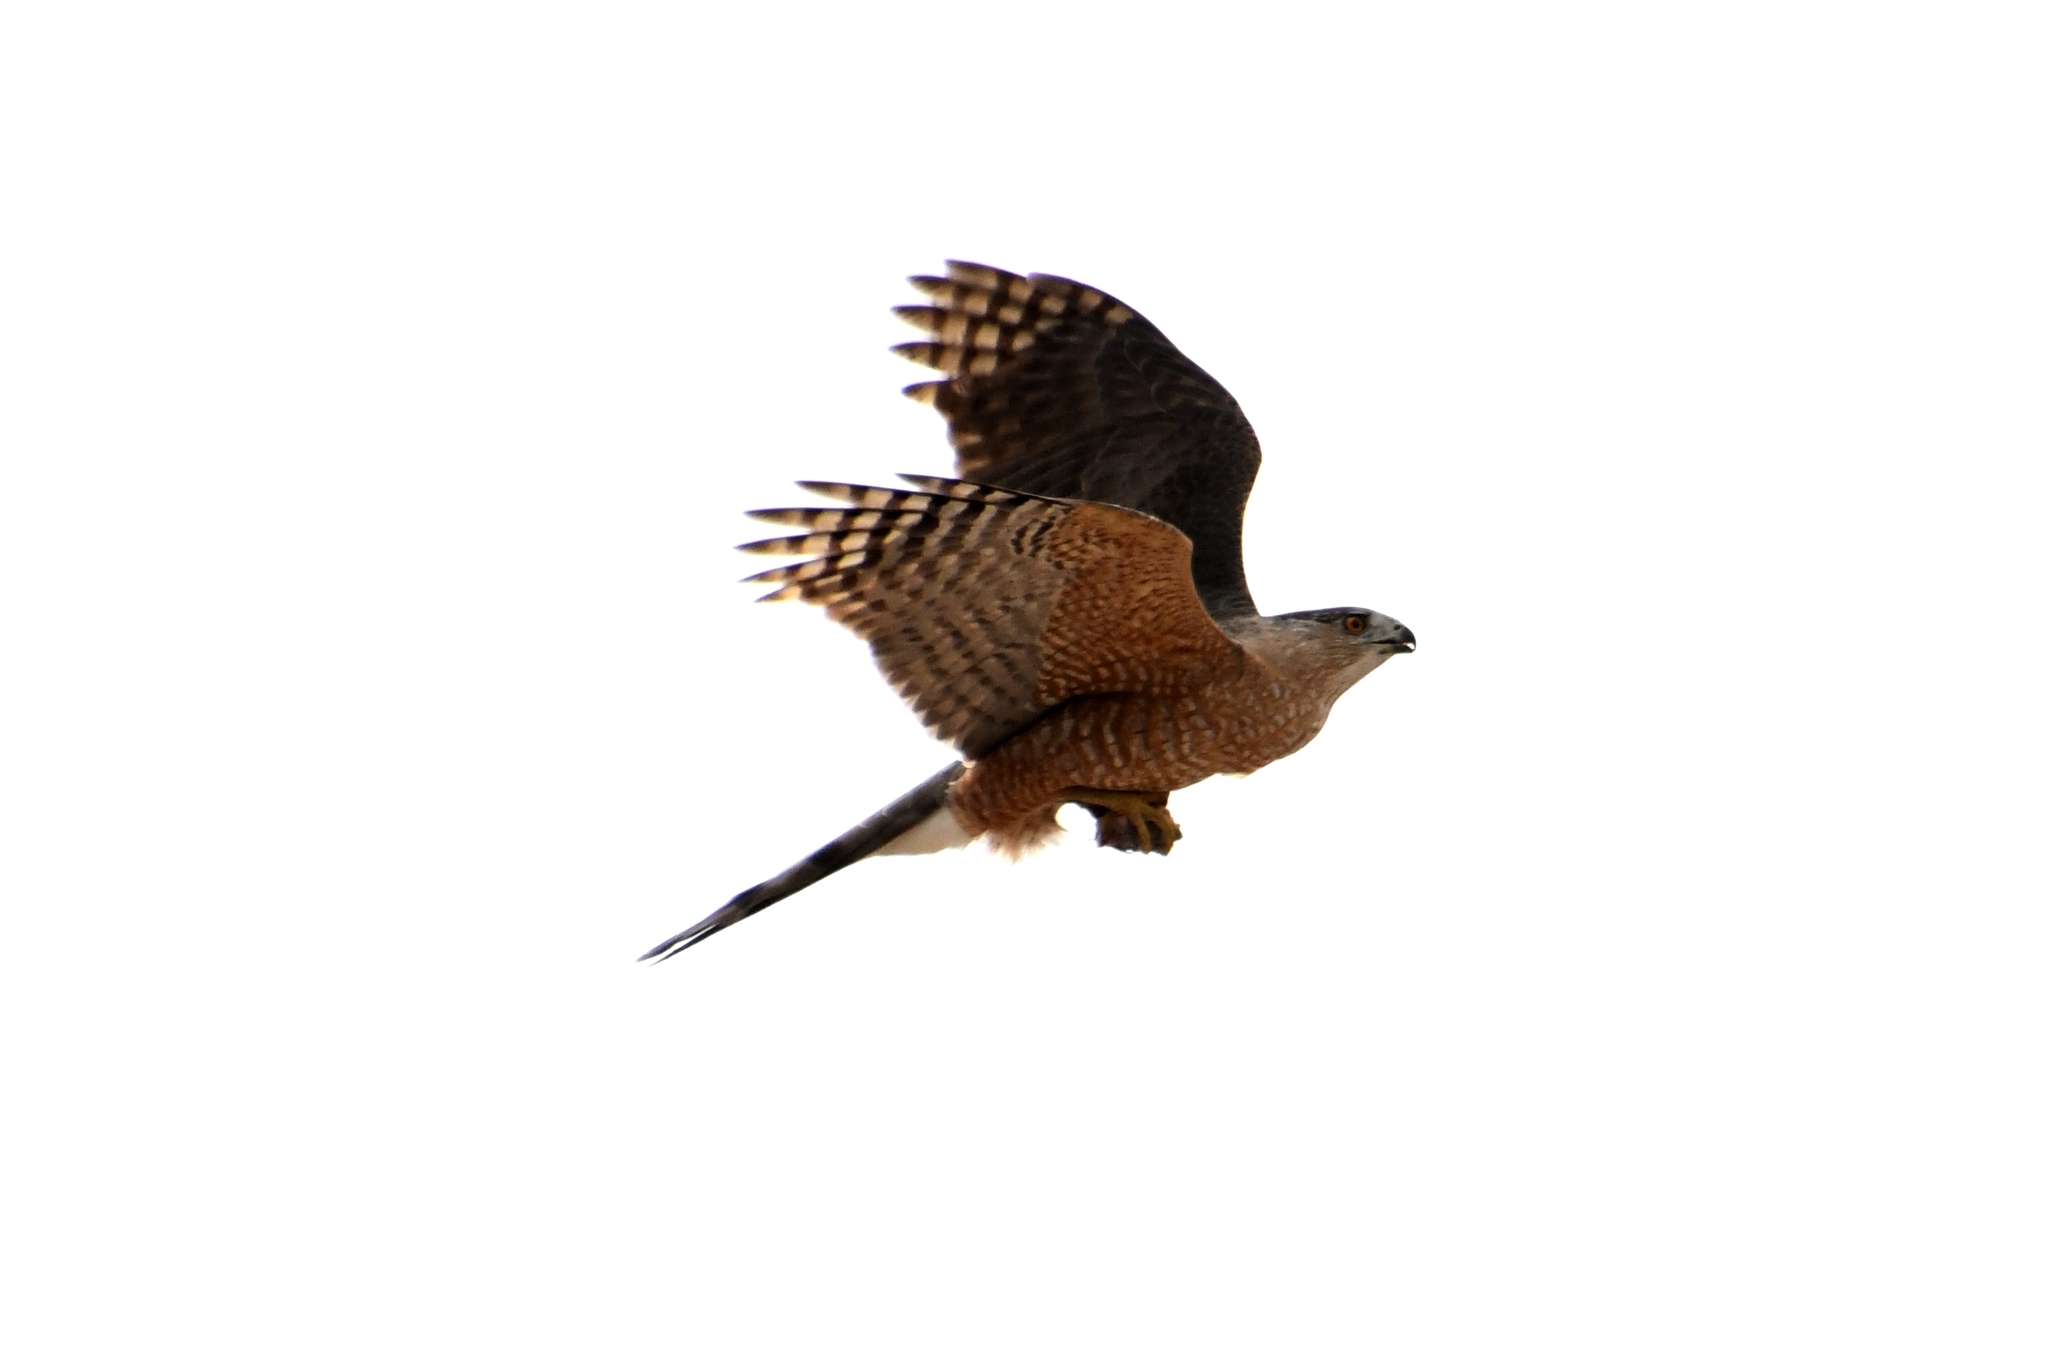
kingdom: Animalia
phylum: Chordata
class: Aves
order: Accipitriformes
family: Accipitridae
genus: Accipiter
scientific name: Accipiter cooperii
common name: Cooper's hawk
